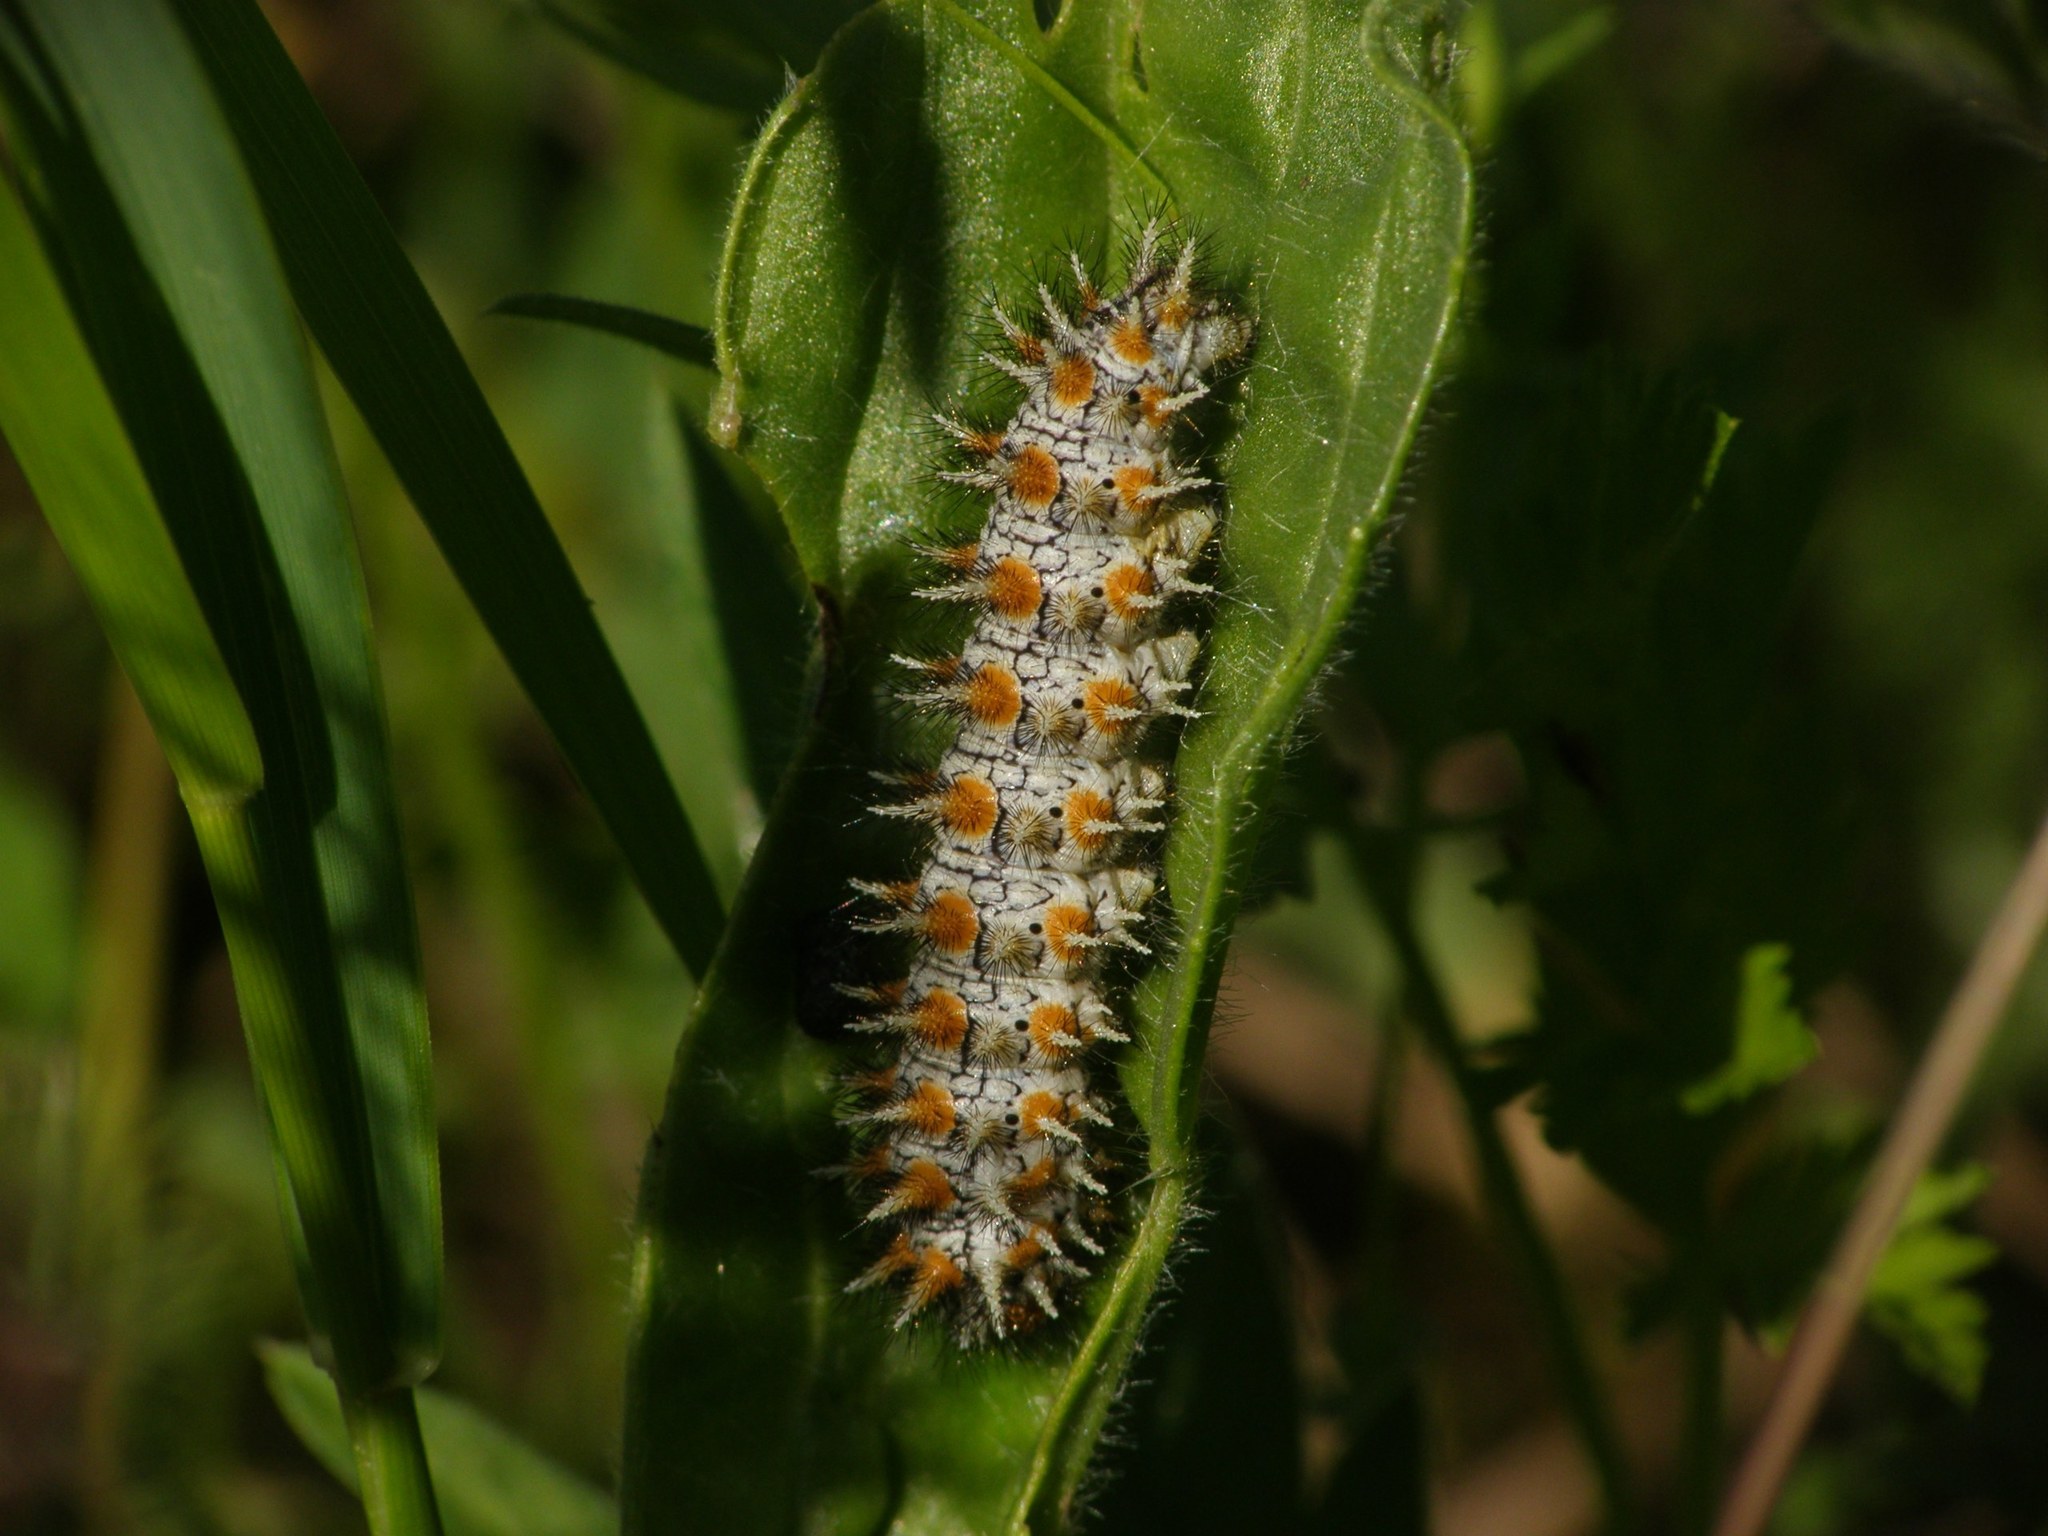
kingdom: Animalia
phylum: Arthropoda
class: Insecta
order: Lepidoptera
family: Nymphalidae
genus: Melitaea
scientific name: Melitaea didyma
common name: Spotted fritillary
